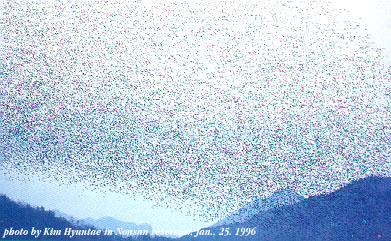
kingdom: Animalia
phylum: Chordata
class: Aves
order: Anseriformes
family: Anatidae
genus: Sibirionetta
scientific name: Sibirionetta formosa
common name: Baikal teal
